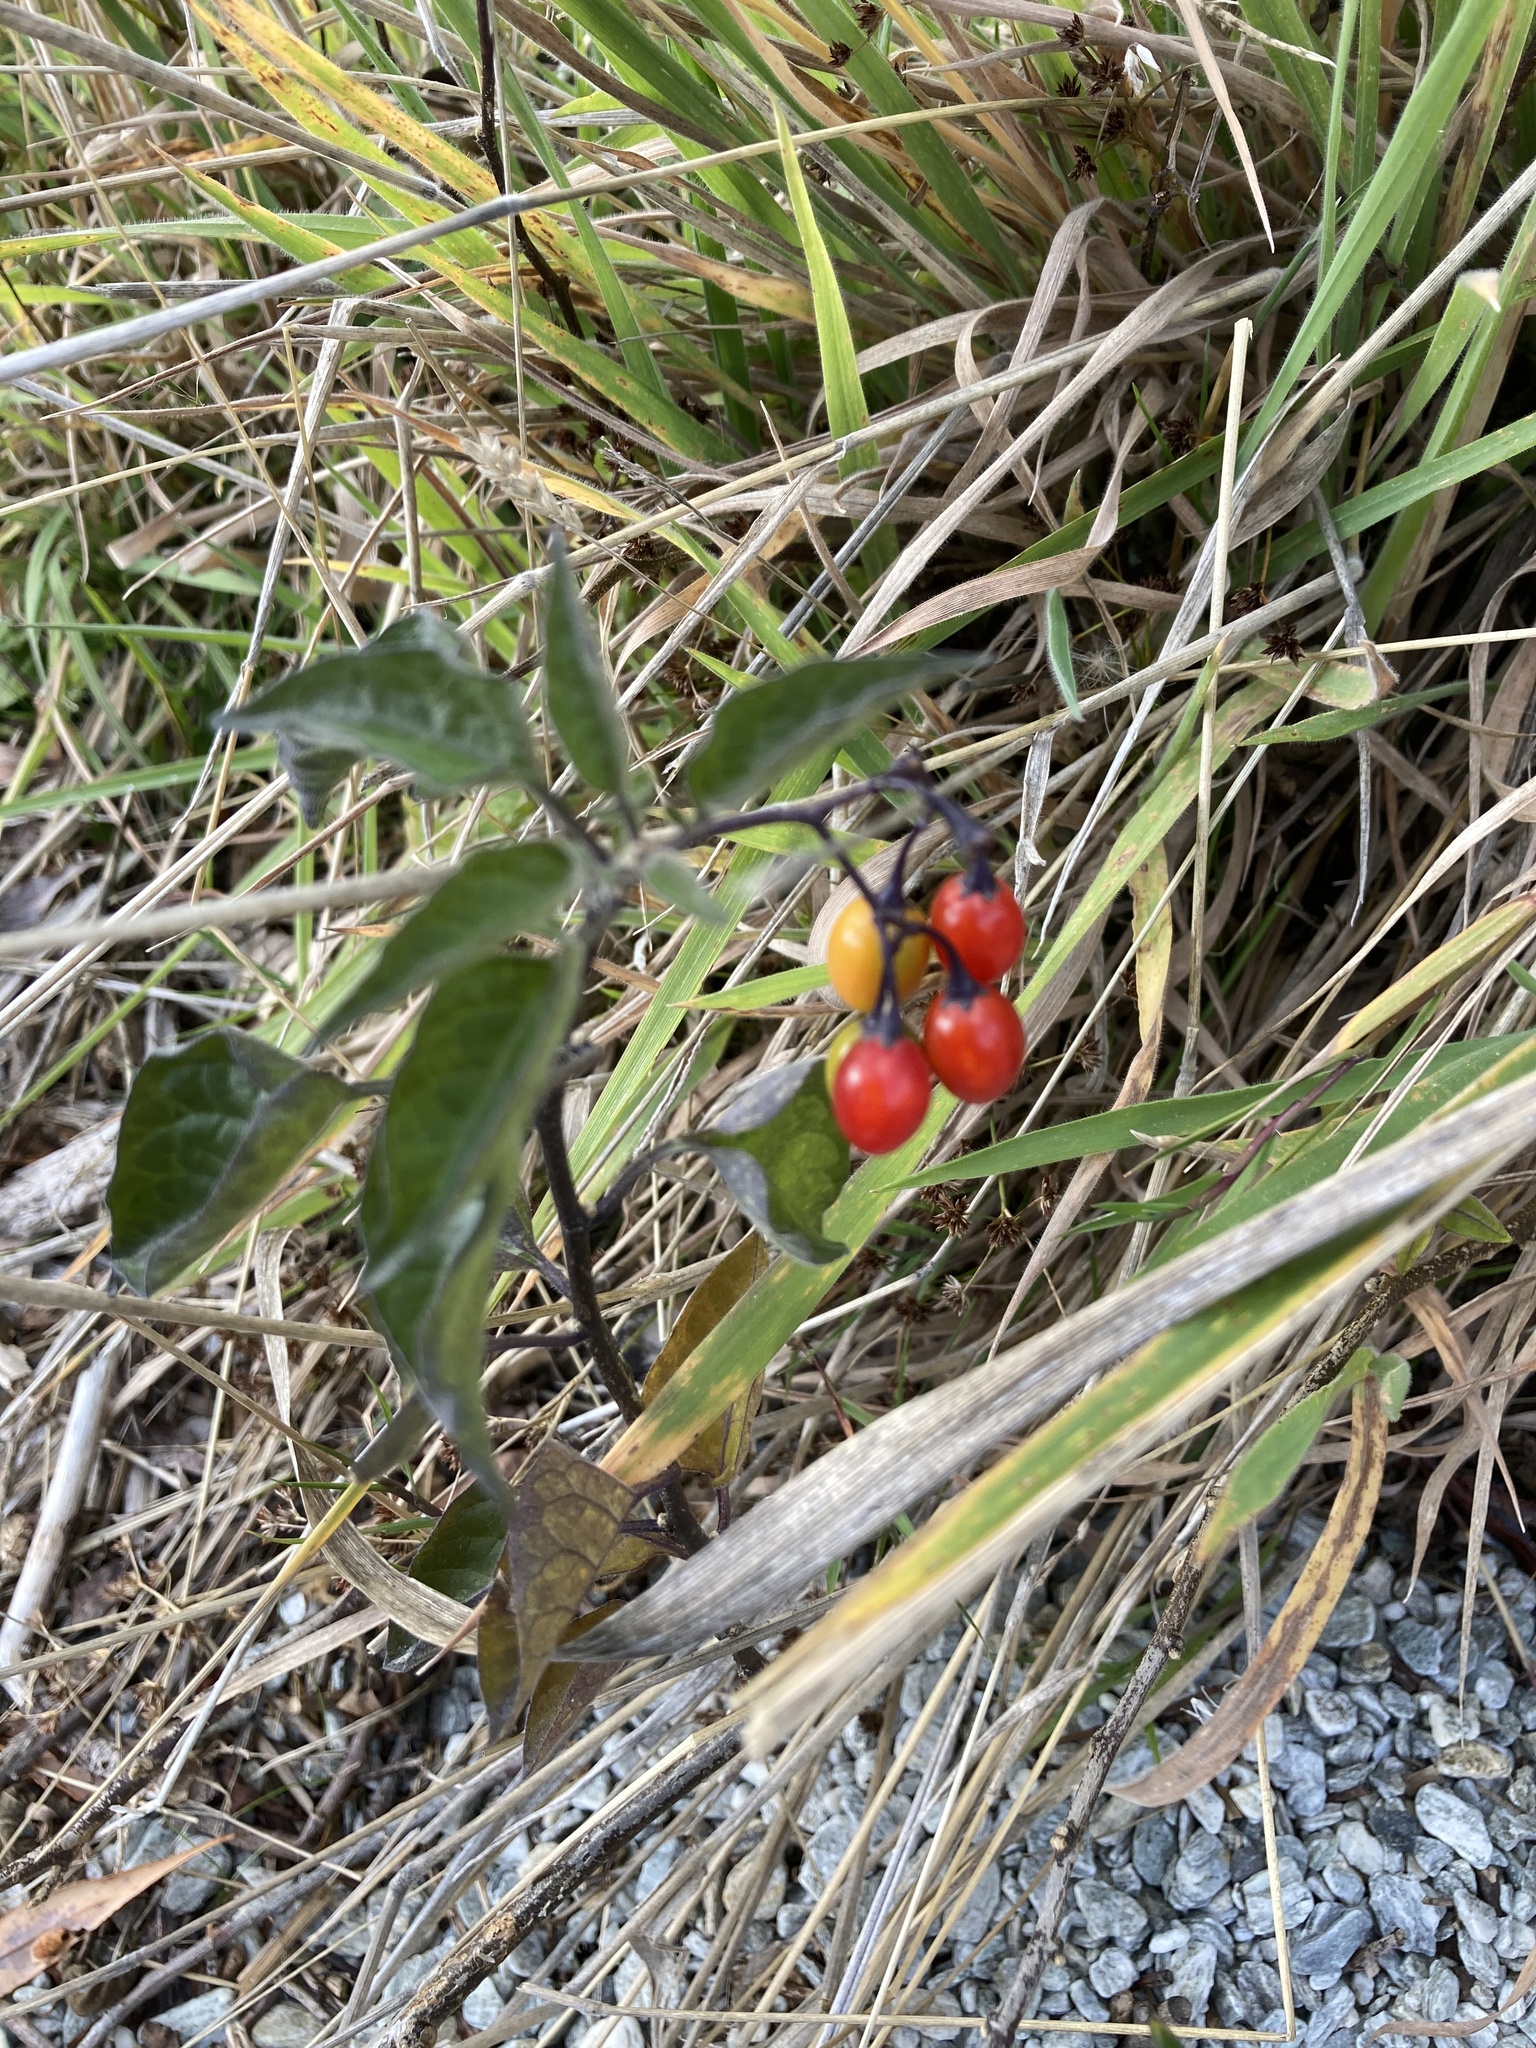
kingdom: Plantae
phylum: Tracheophyta
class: Magnoliopsida
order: Solanales
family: Solanaceae
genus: Solanum
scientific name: Solanum dulcamara
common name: Climbing nightshade
